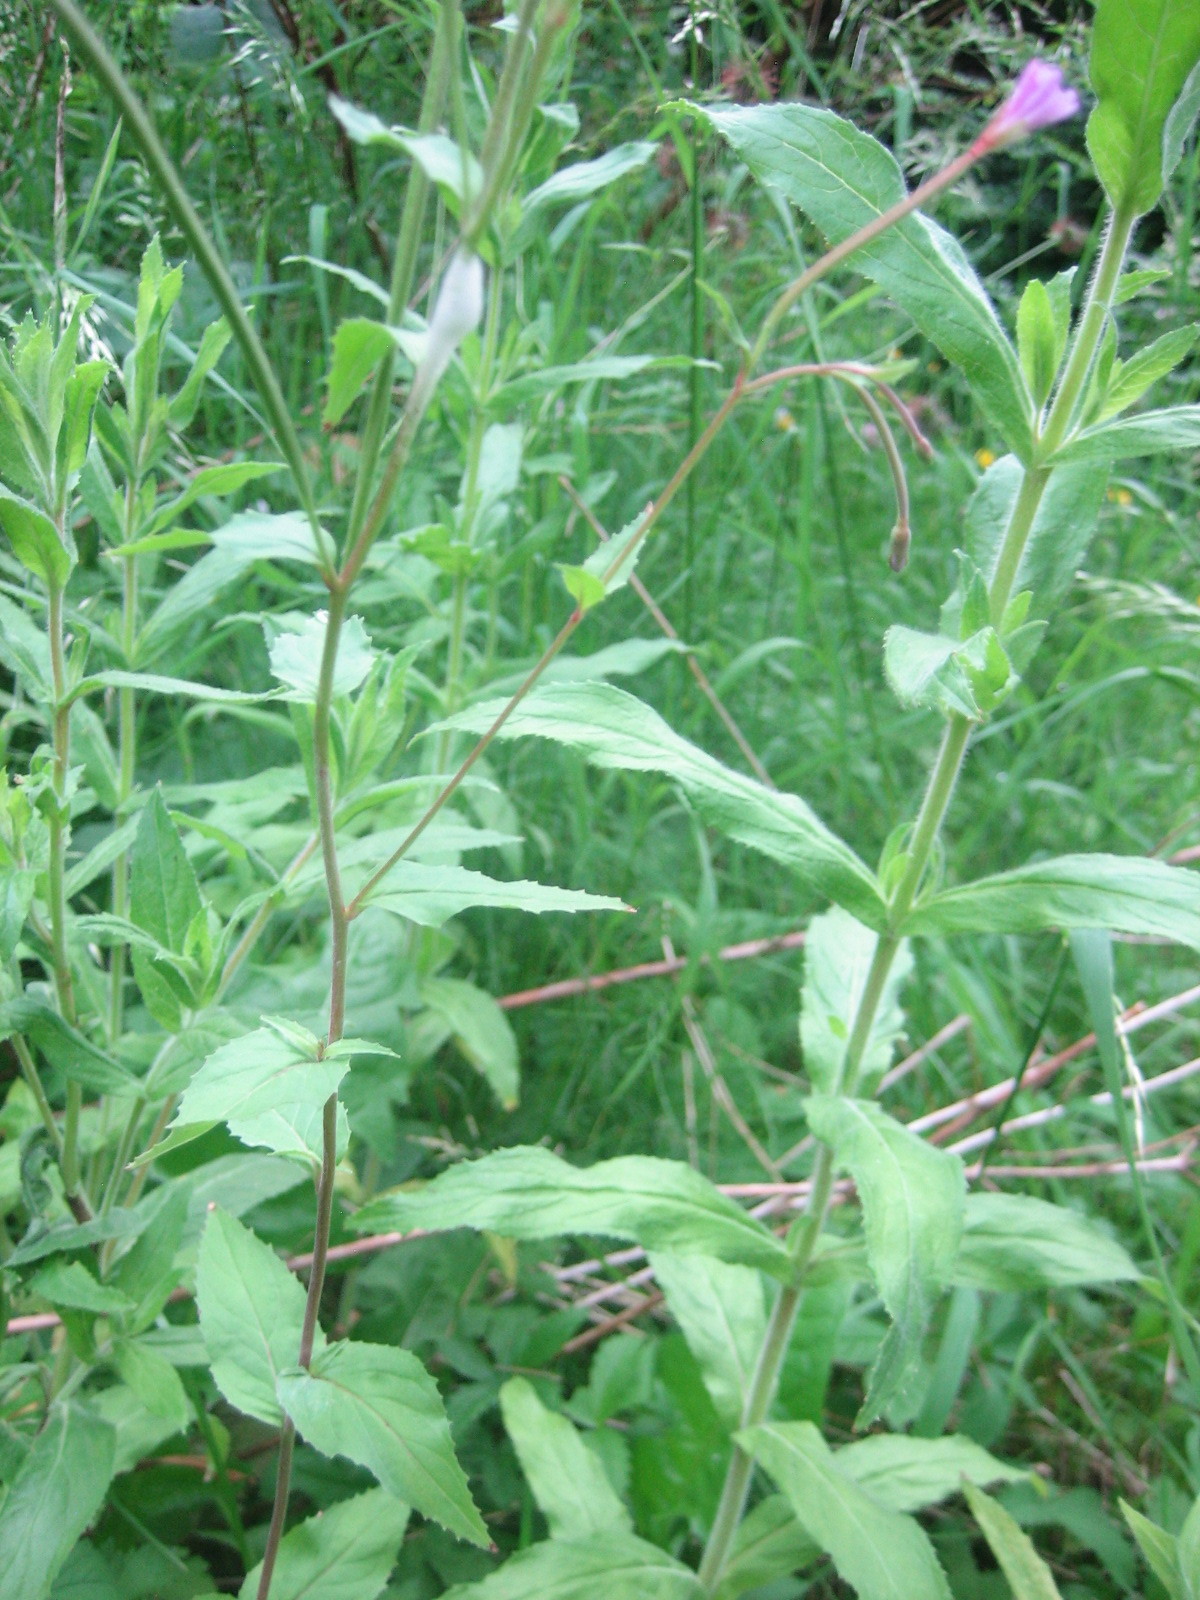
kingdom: Plantae
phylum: Tracheophyta
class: Magnoliopsida
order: Myrtales
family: Onagraceae
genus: Epilobium
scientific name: Epilobium montanum
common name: Broad-leaved willowherb
